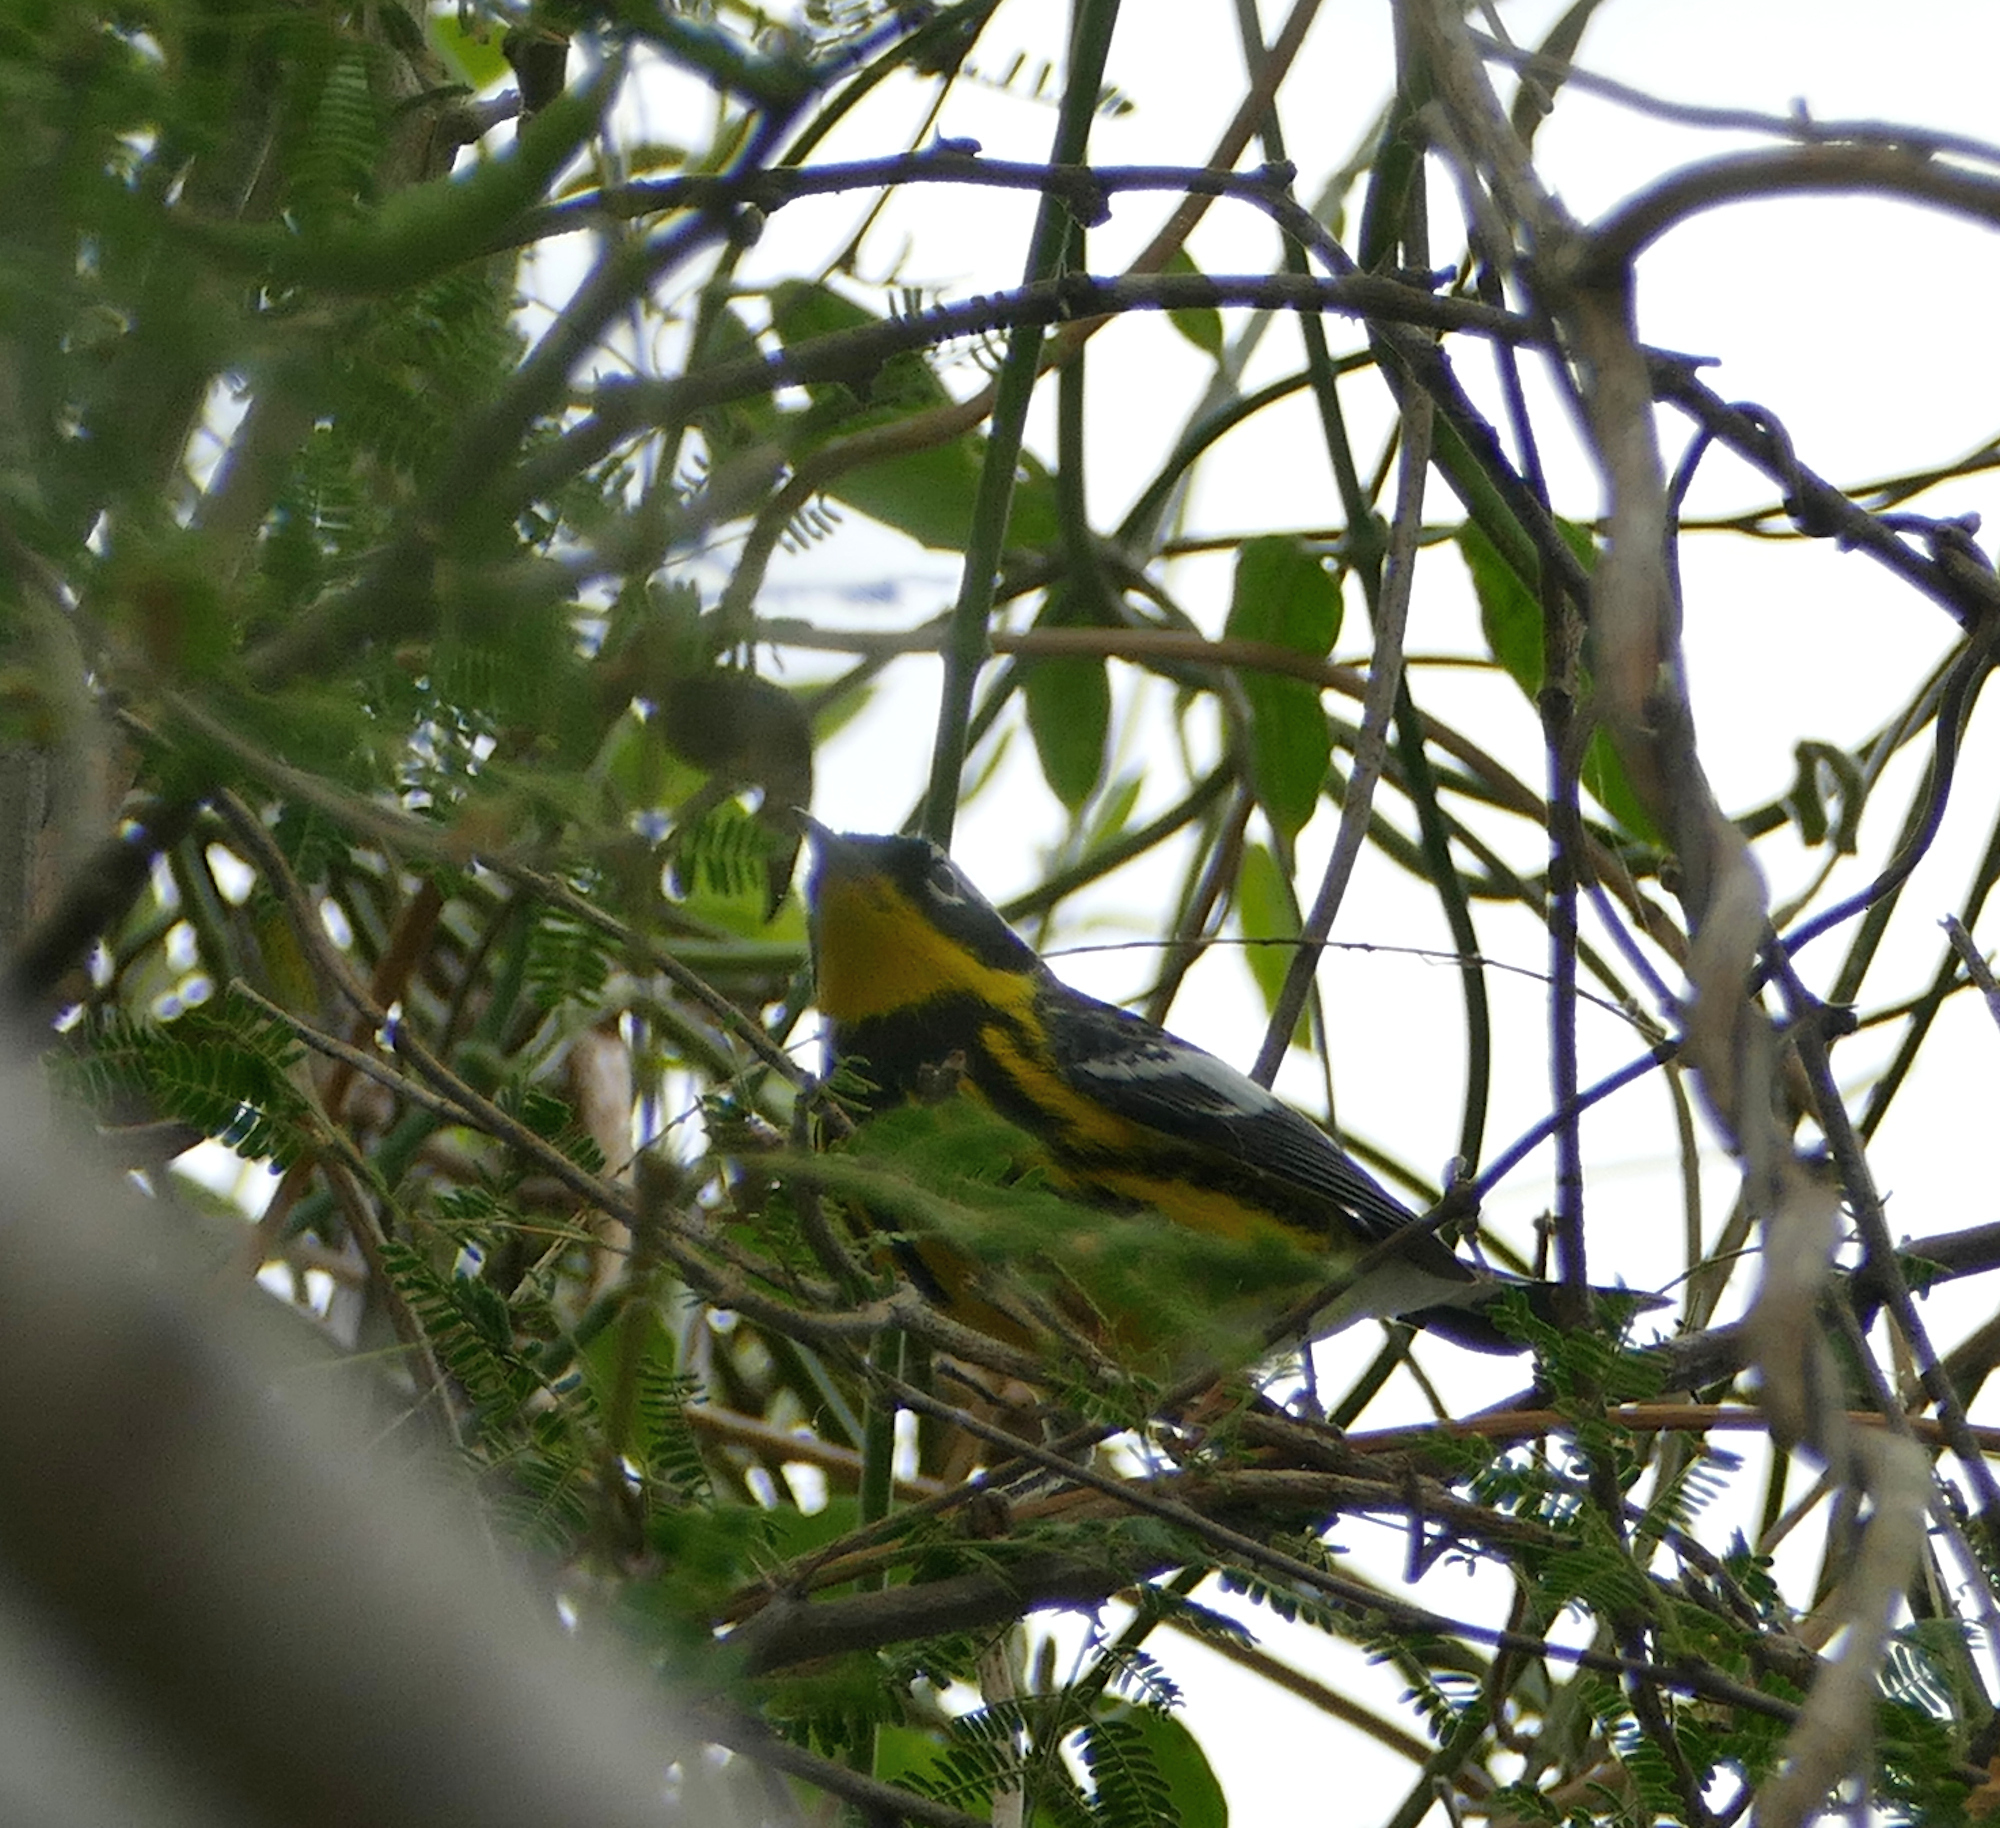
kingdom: Animalia
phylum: Chordata
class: Aves
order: Passeriformes
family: Parulidae
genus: Setophaga
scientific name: Setophaga magnolia
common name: Magnolia warbler
